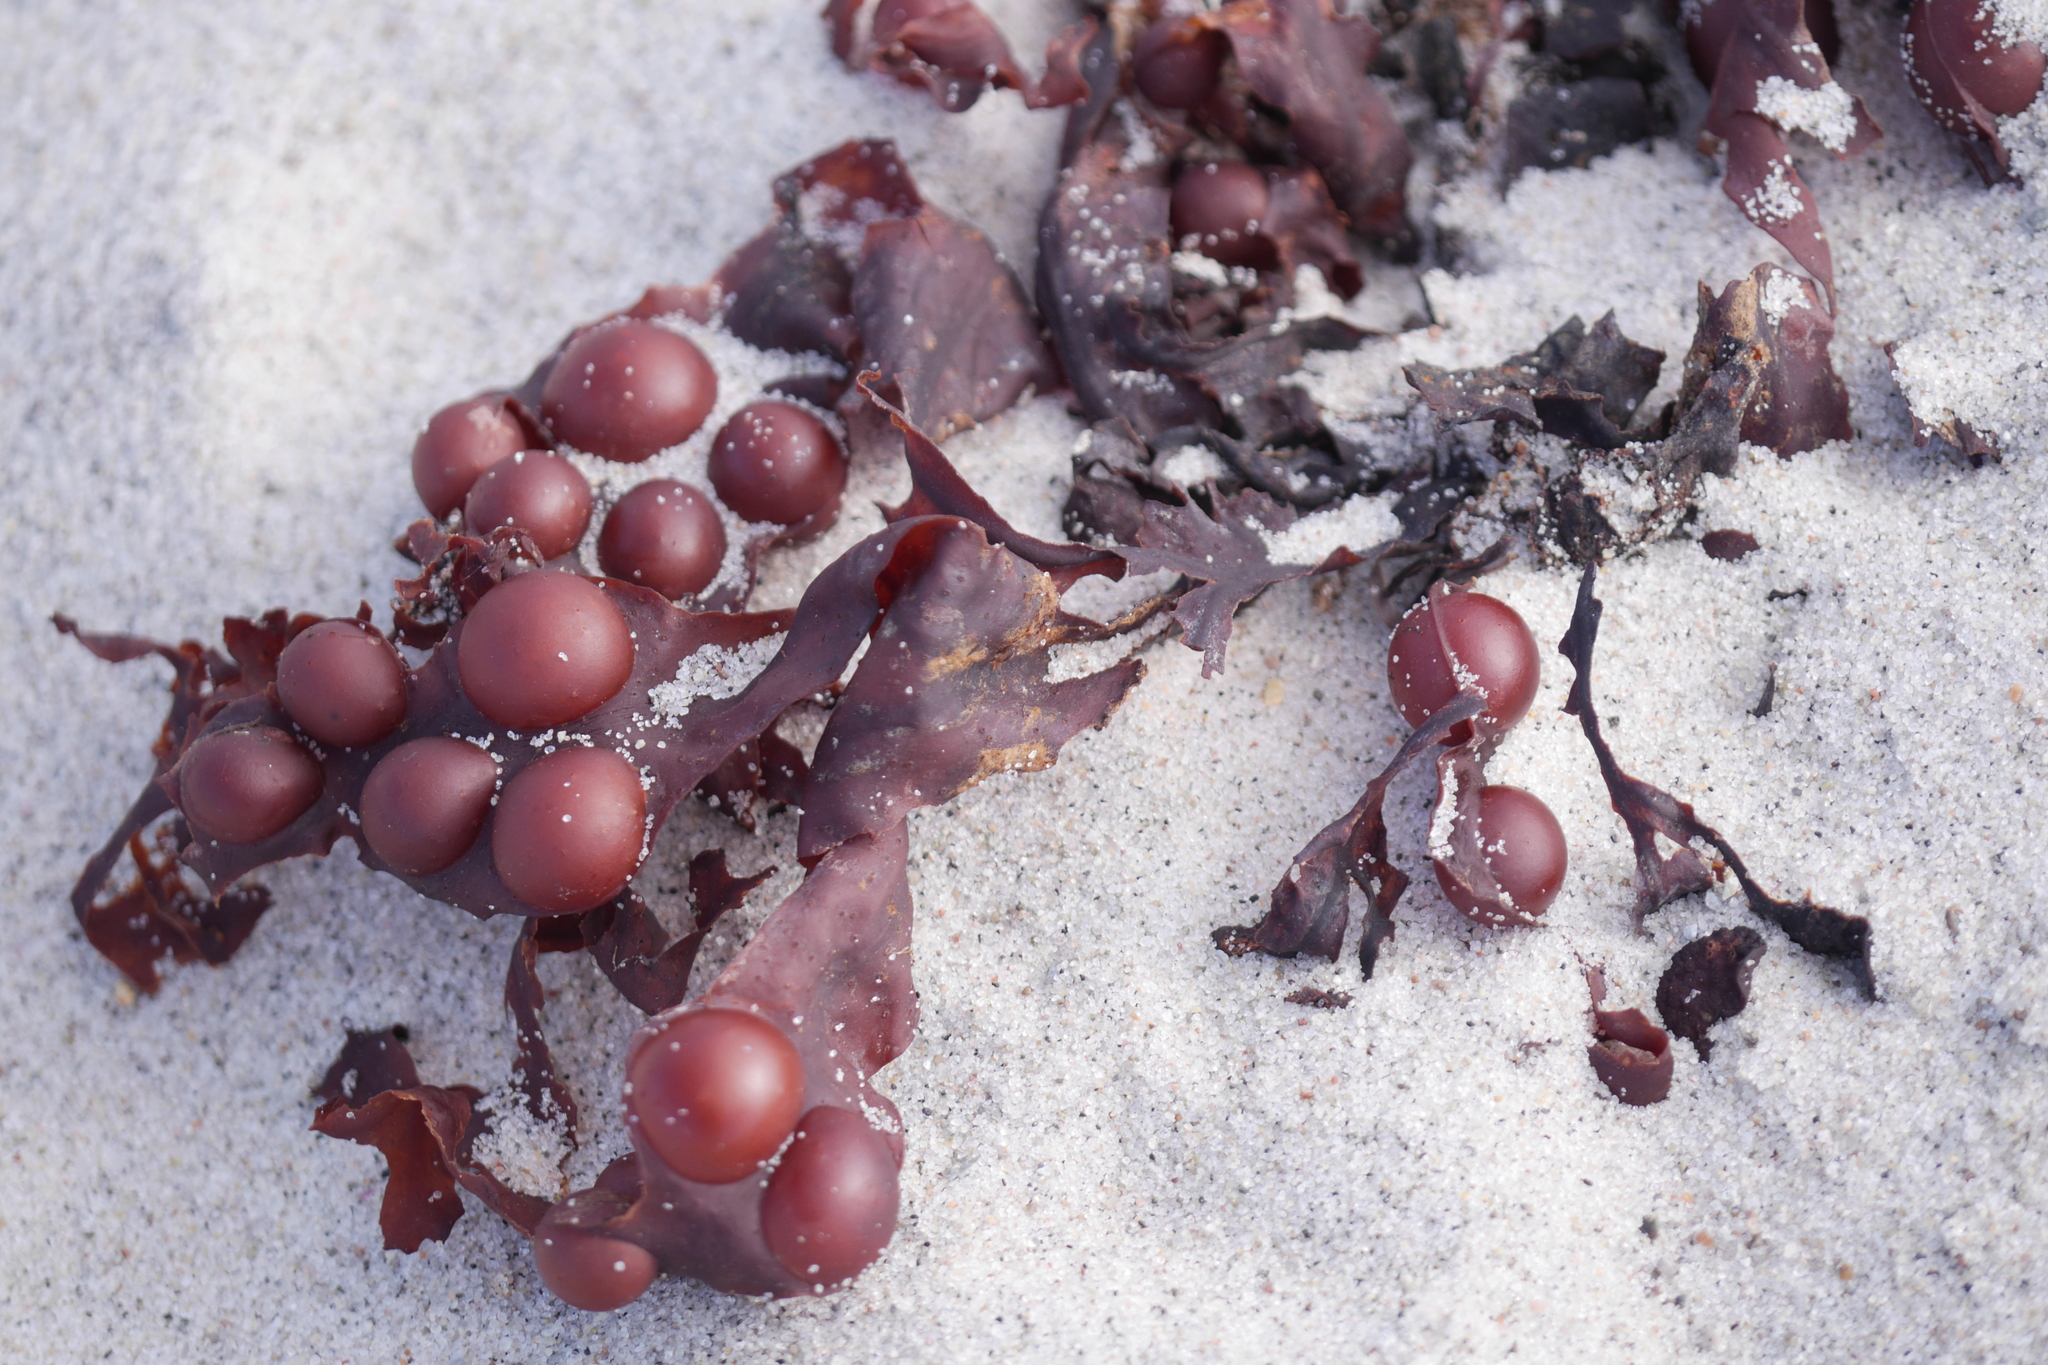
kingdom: Chromista
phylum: Ochrophyta
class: Phaeophyceae
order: Fucales
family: Fucaceae
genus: Fucus
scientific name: Fucus vesiculosus
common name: Bladder wrack
